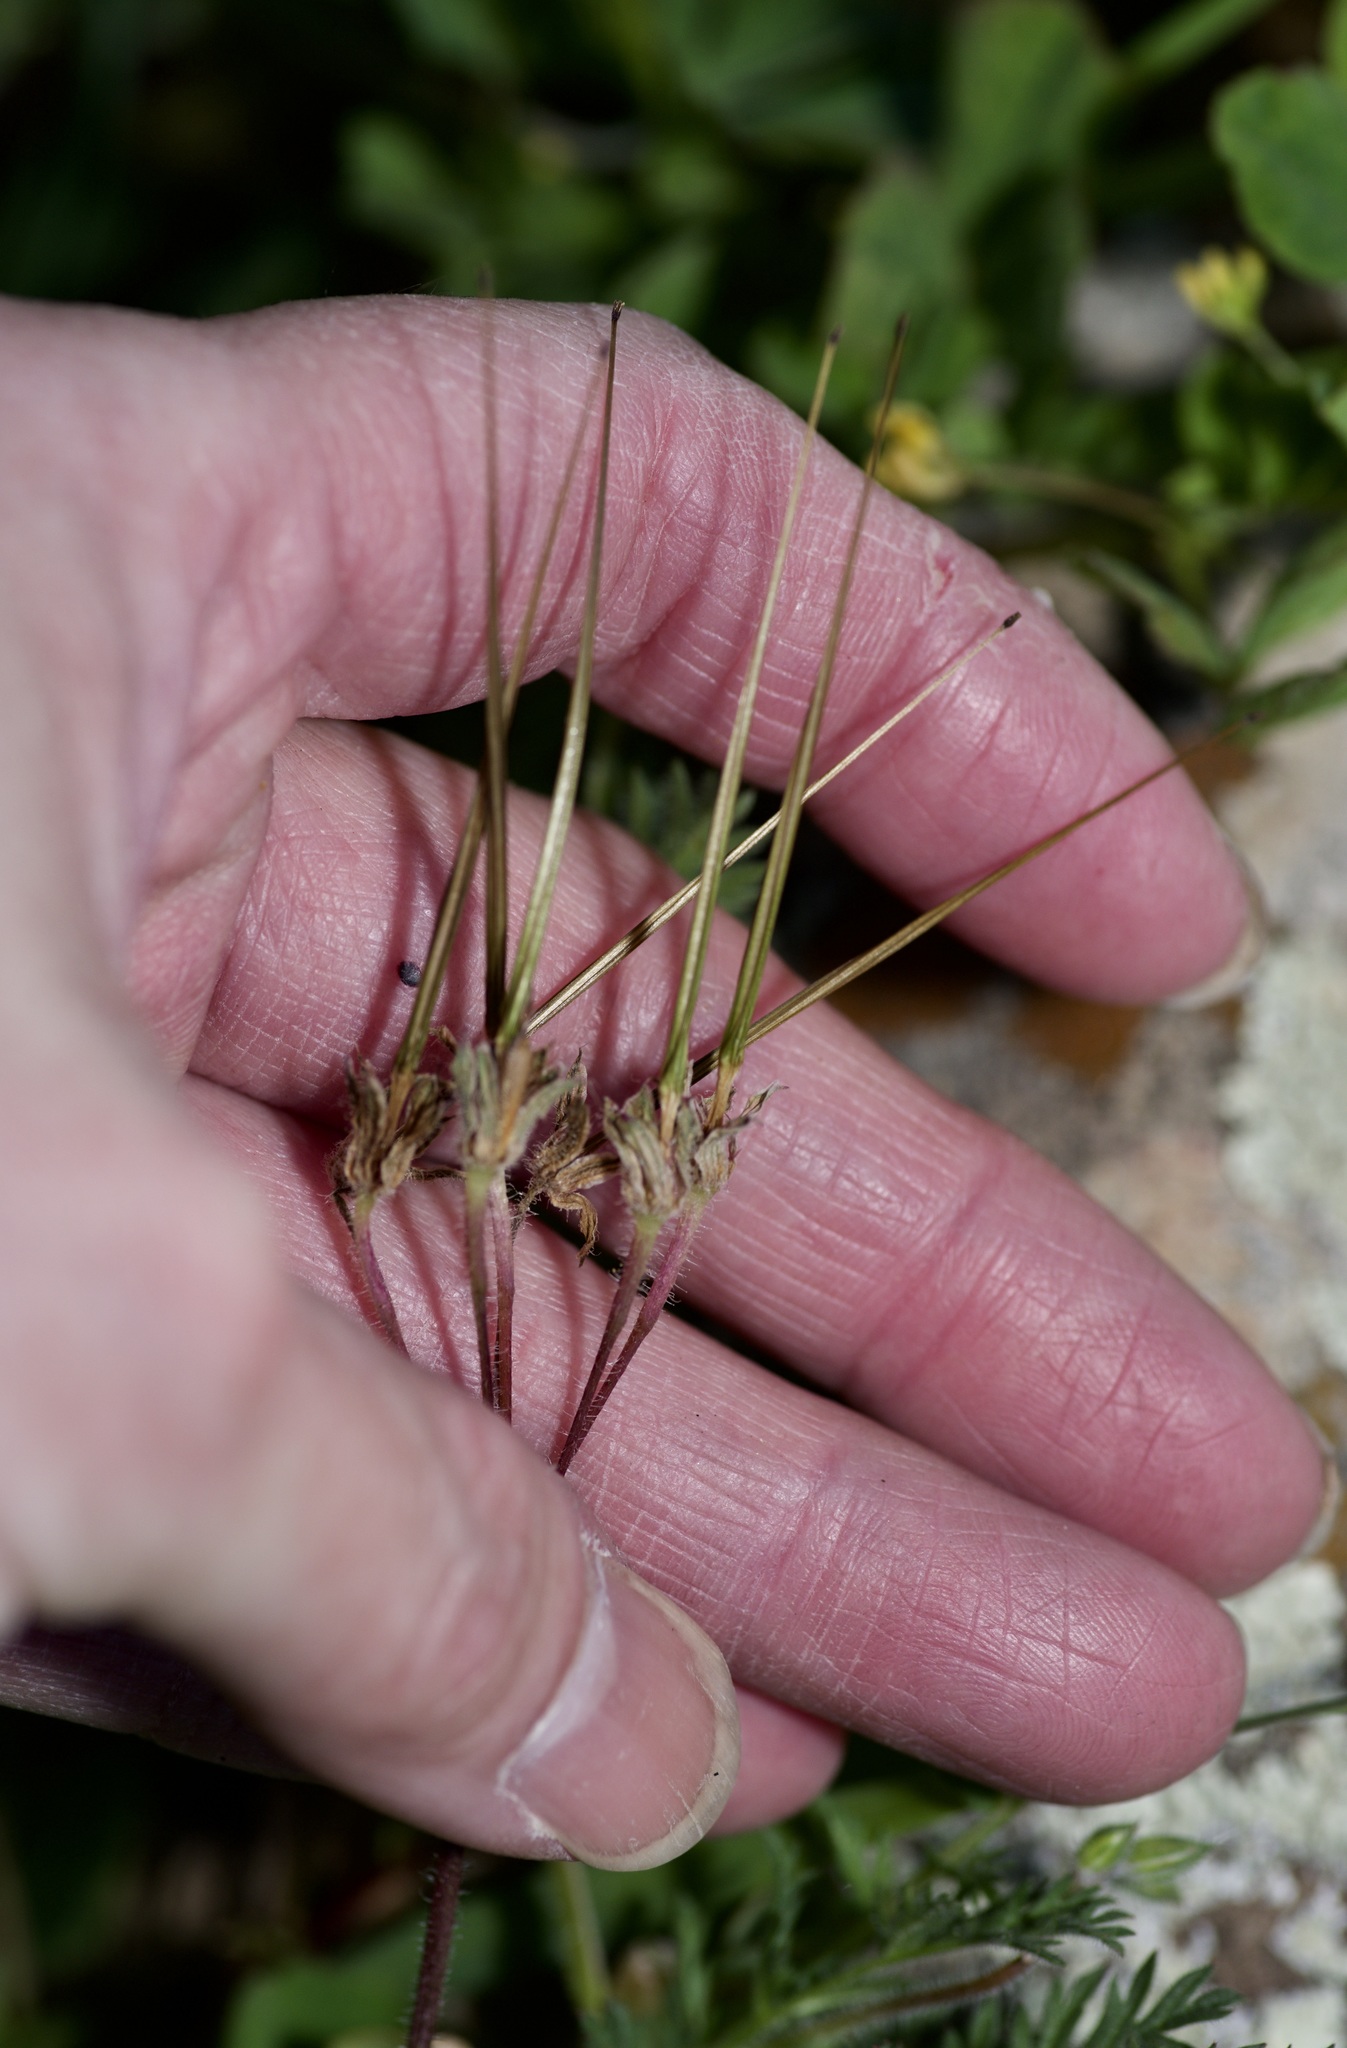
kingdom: Plantae
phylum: Tracheophyta
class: Magnoliopsida
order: Geraniales
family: Geraniaceae
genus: Erodium
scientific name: Erodium cicutarium
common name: Common stork's-bill
